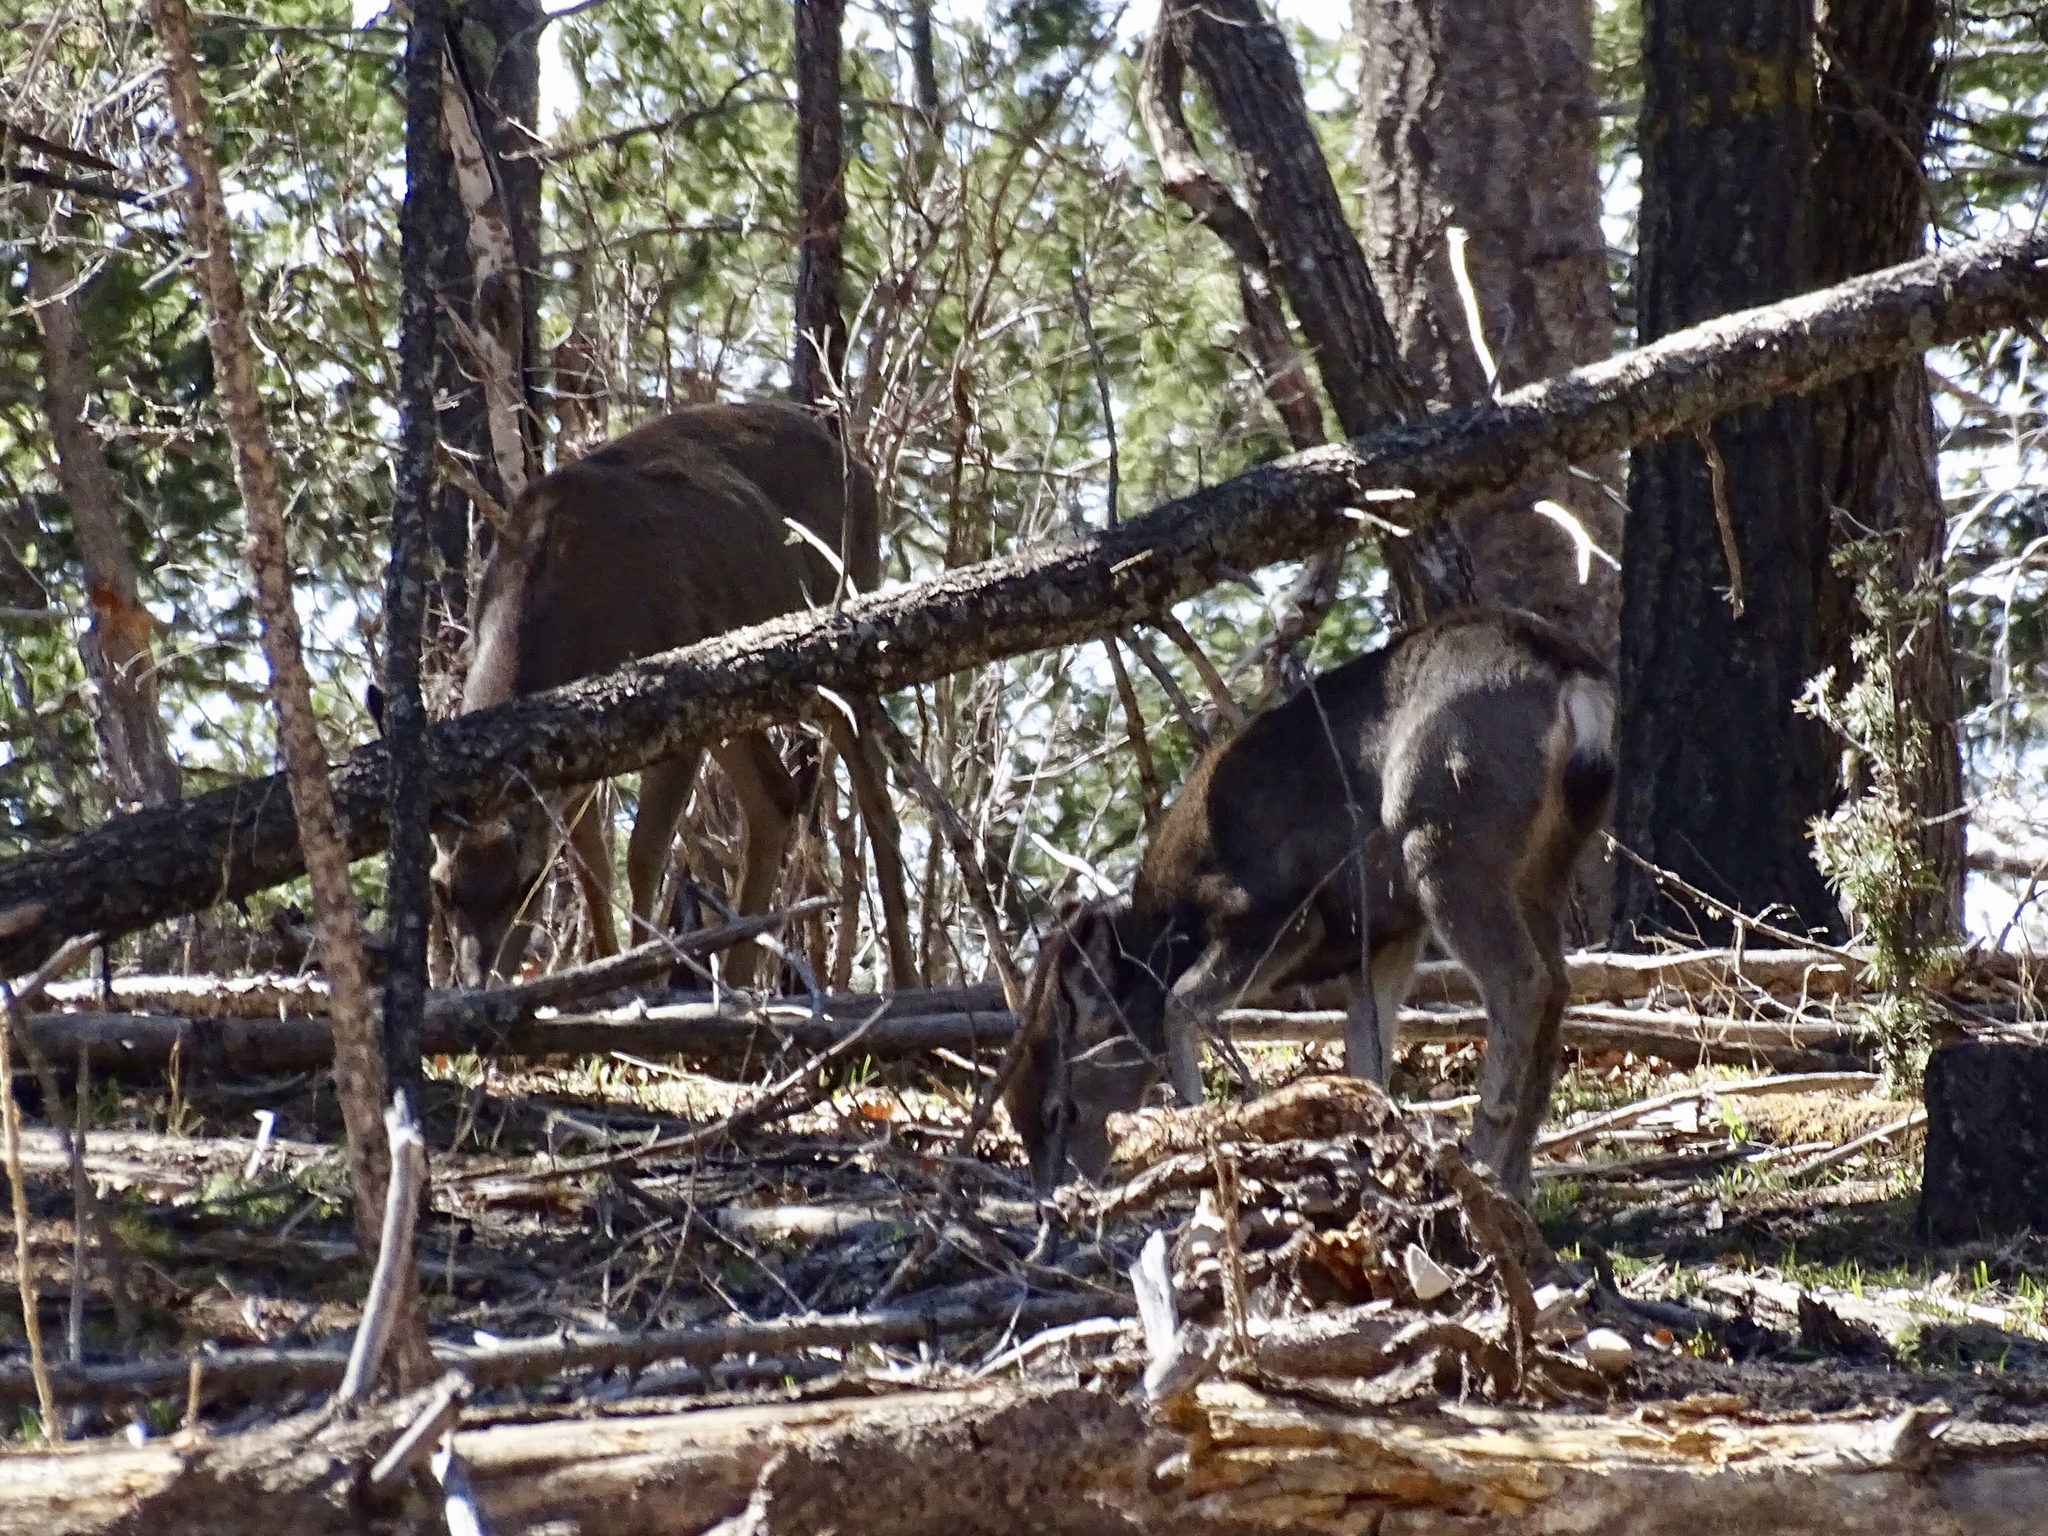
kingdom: Animalia
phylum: Chordata
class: Mammalia
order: Artiodactyla
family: Cervidae
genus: Odocoileus
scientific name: Odocoileus hemionus
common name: Mule deer
